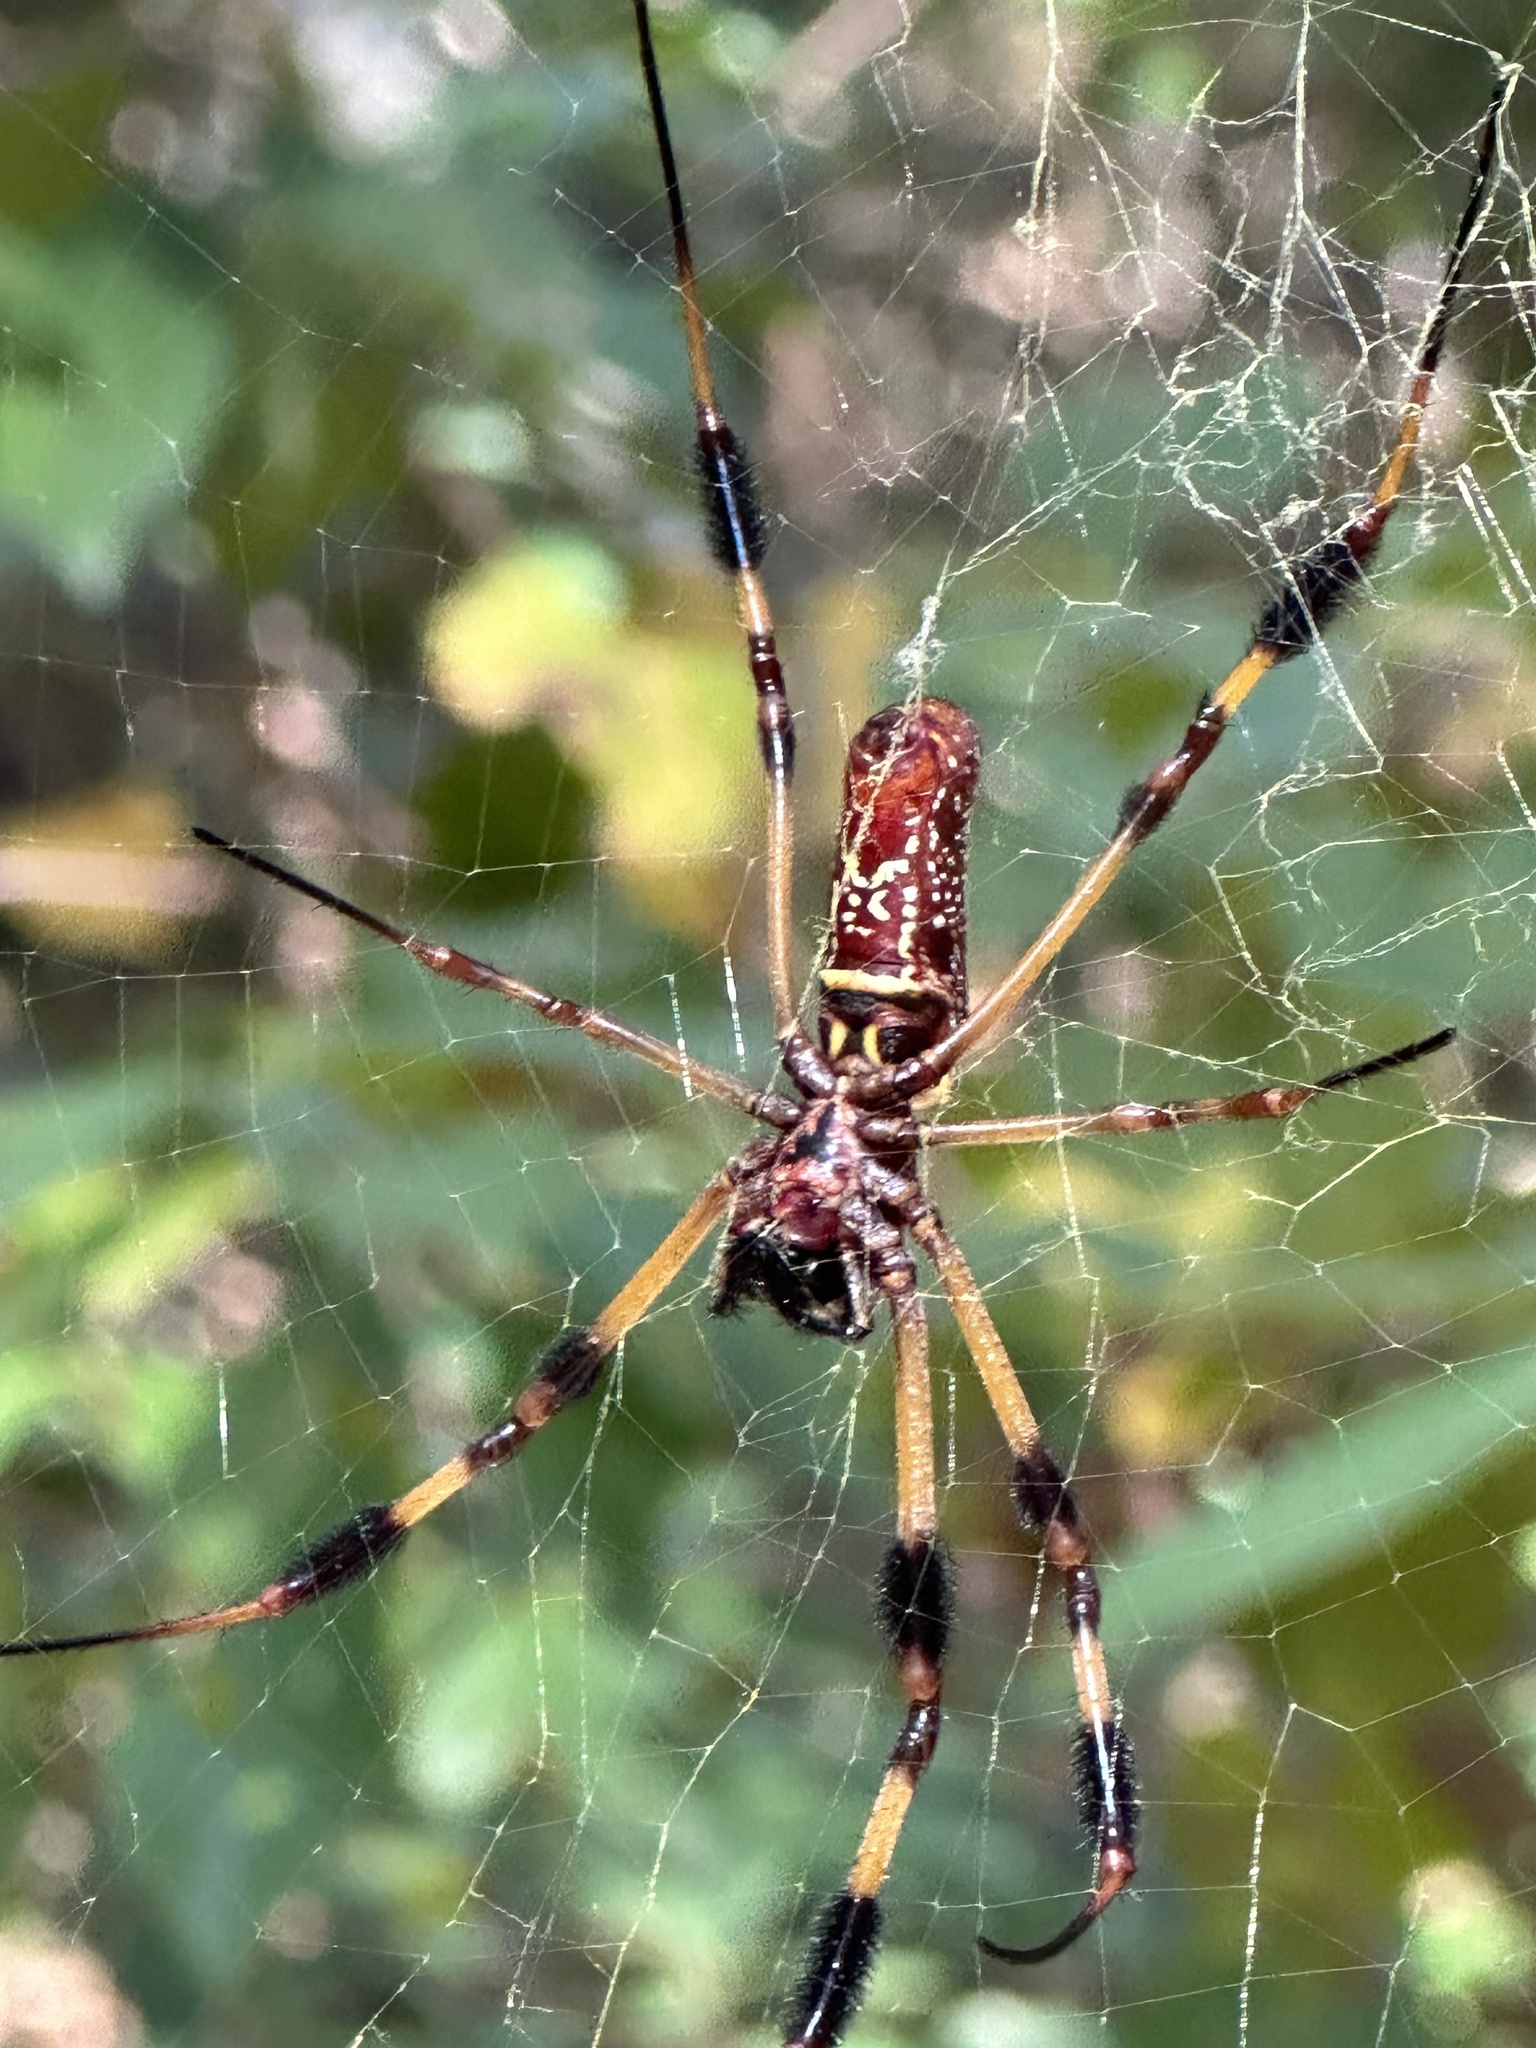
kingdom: Animalia
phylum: Arthropoda
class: Arachnida
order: Araneae
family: Araneidae
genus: Trichonephila
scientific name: Trichonephila clavipes
